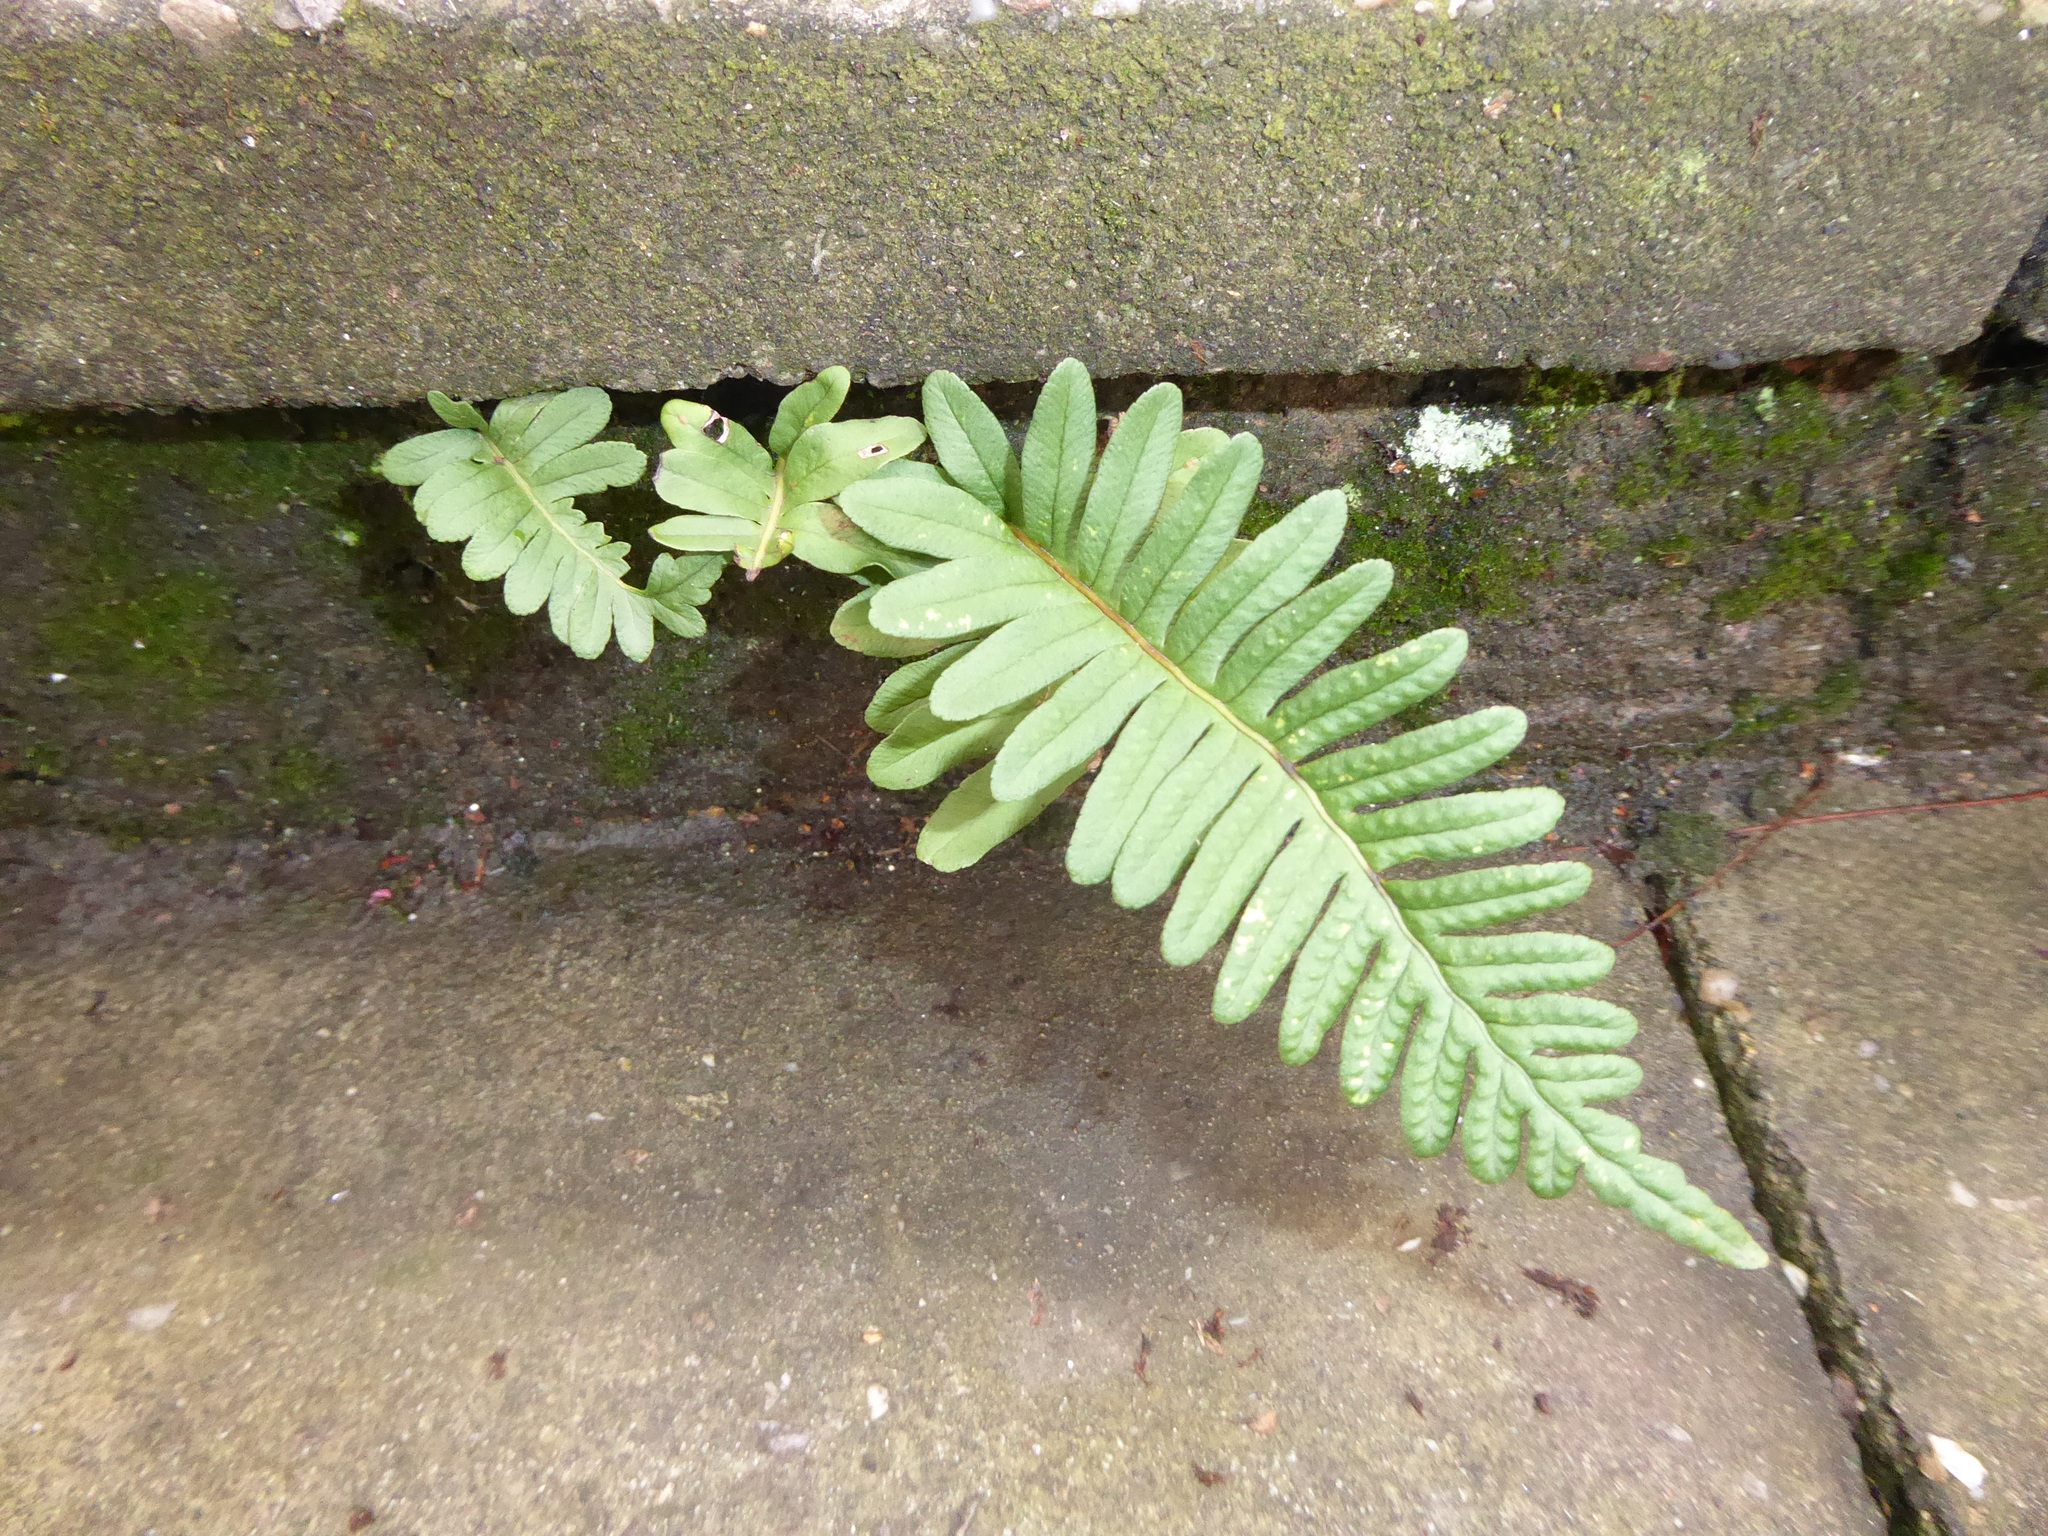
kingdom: Plantae
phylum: Tracheophyta
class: Polypodiopsida
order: Polypodiales
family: Polypodiaceae
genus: Polypodium
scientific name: Polypodium
